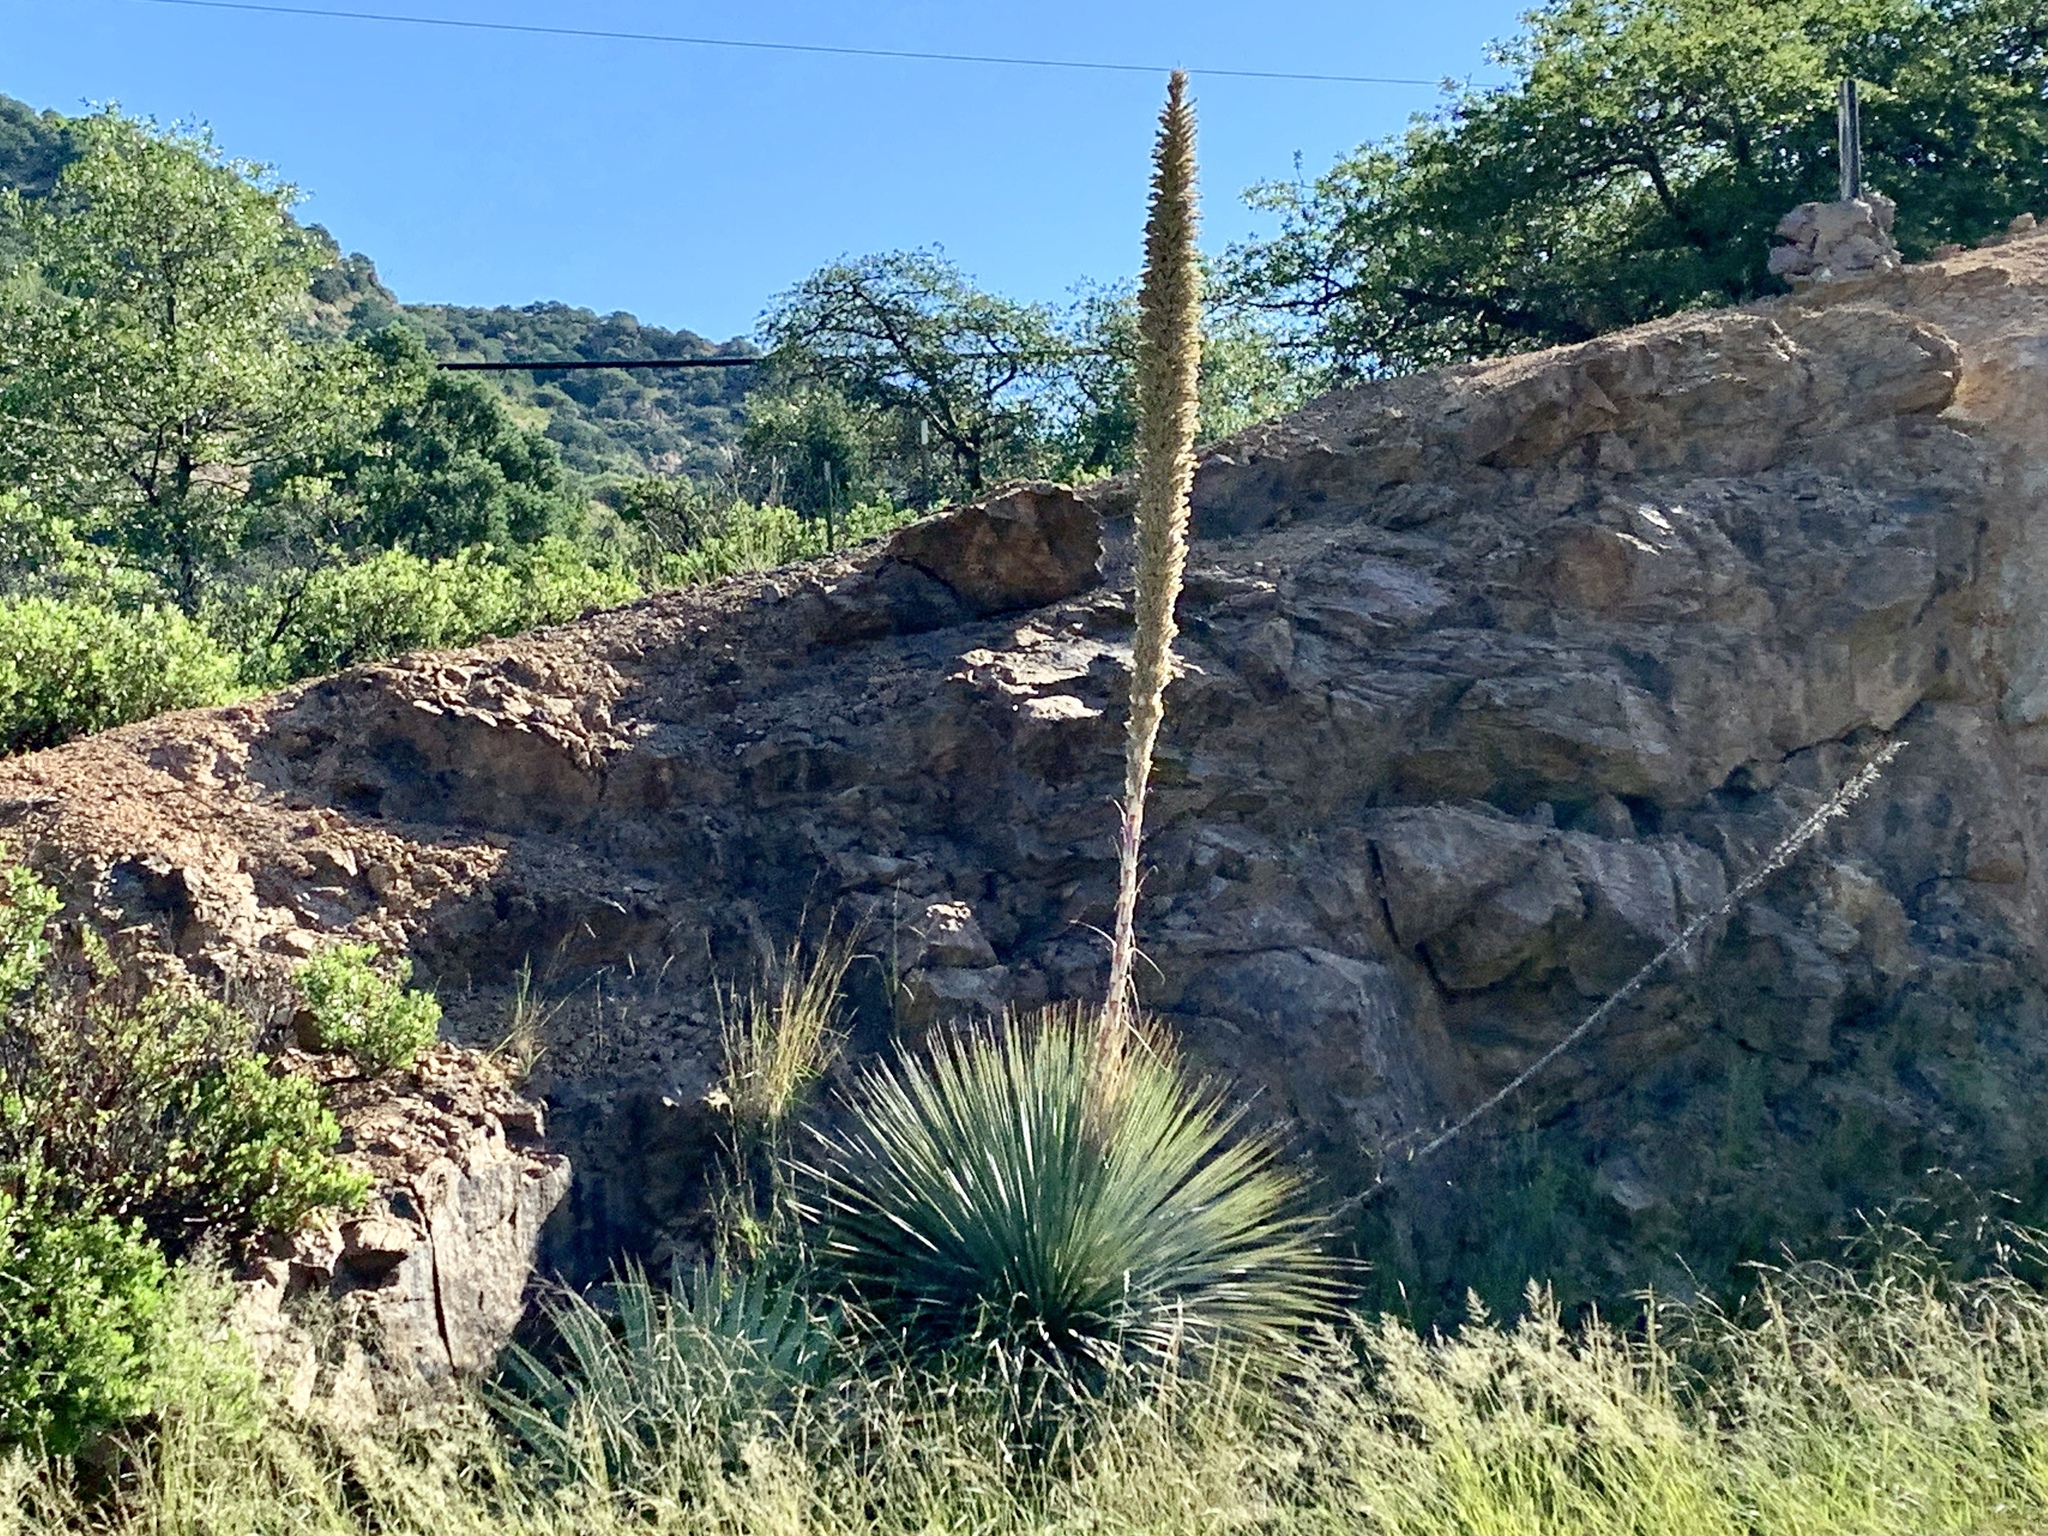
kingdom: Plantae
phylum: Tracheophyta
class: Liliopsida
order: Asparagales
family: Asparagaceae
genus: Dasylirion
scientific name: Dasylirion wheeleri
